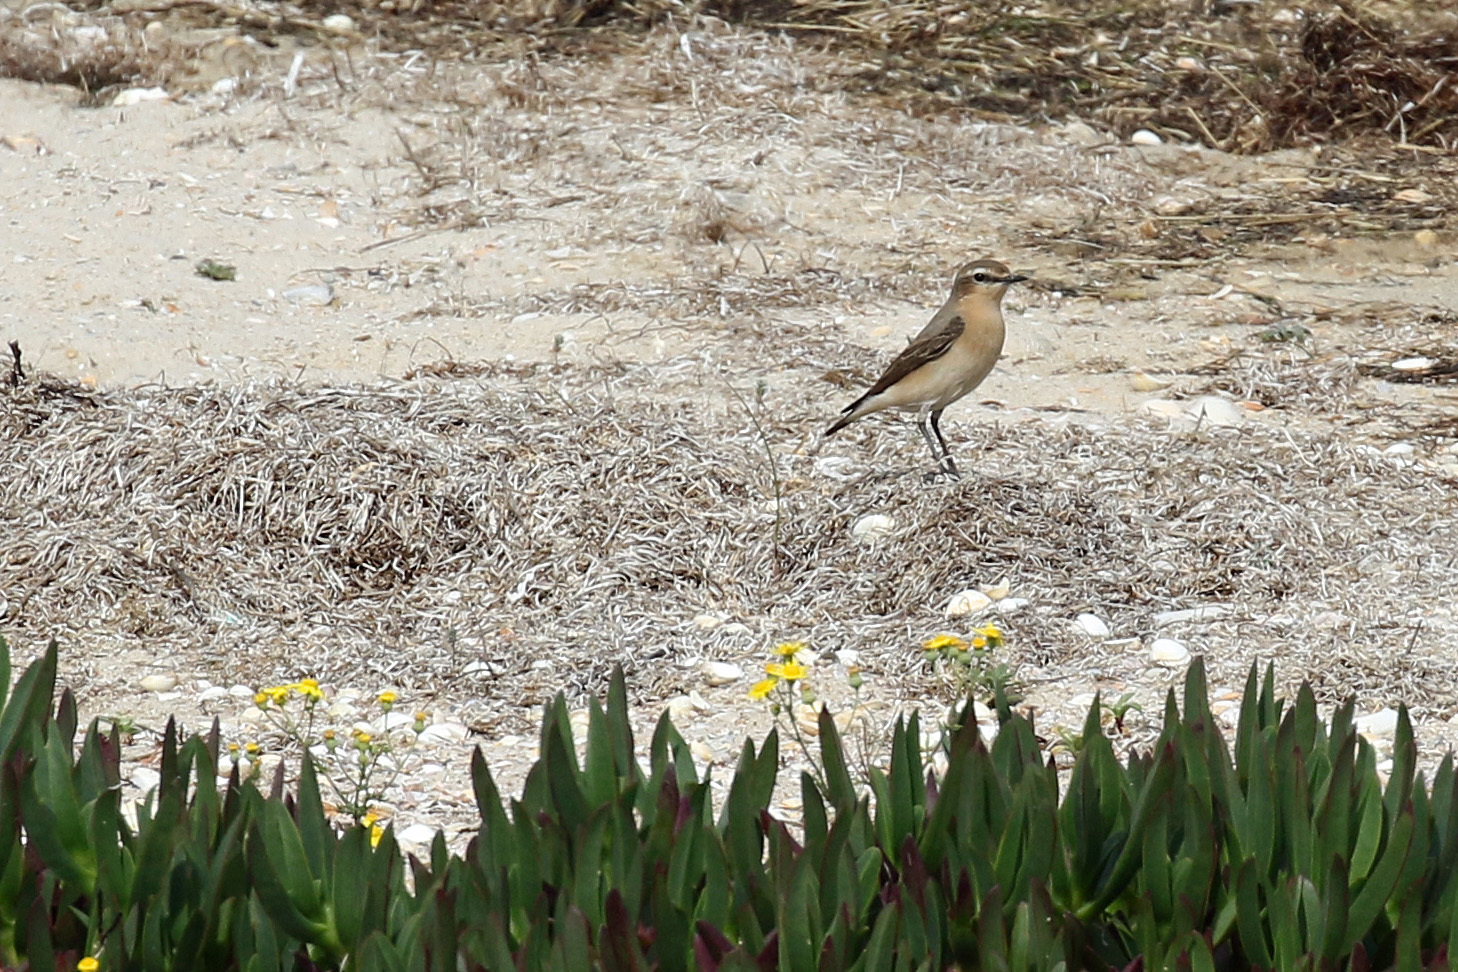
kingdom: Animalia
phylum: Chordata
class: Aves
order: Passeriformes
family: Muscicapidae
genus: Oenanthe
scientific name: Oenanthe oenanthe
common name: Northern wheatear
